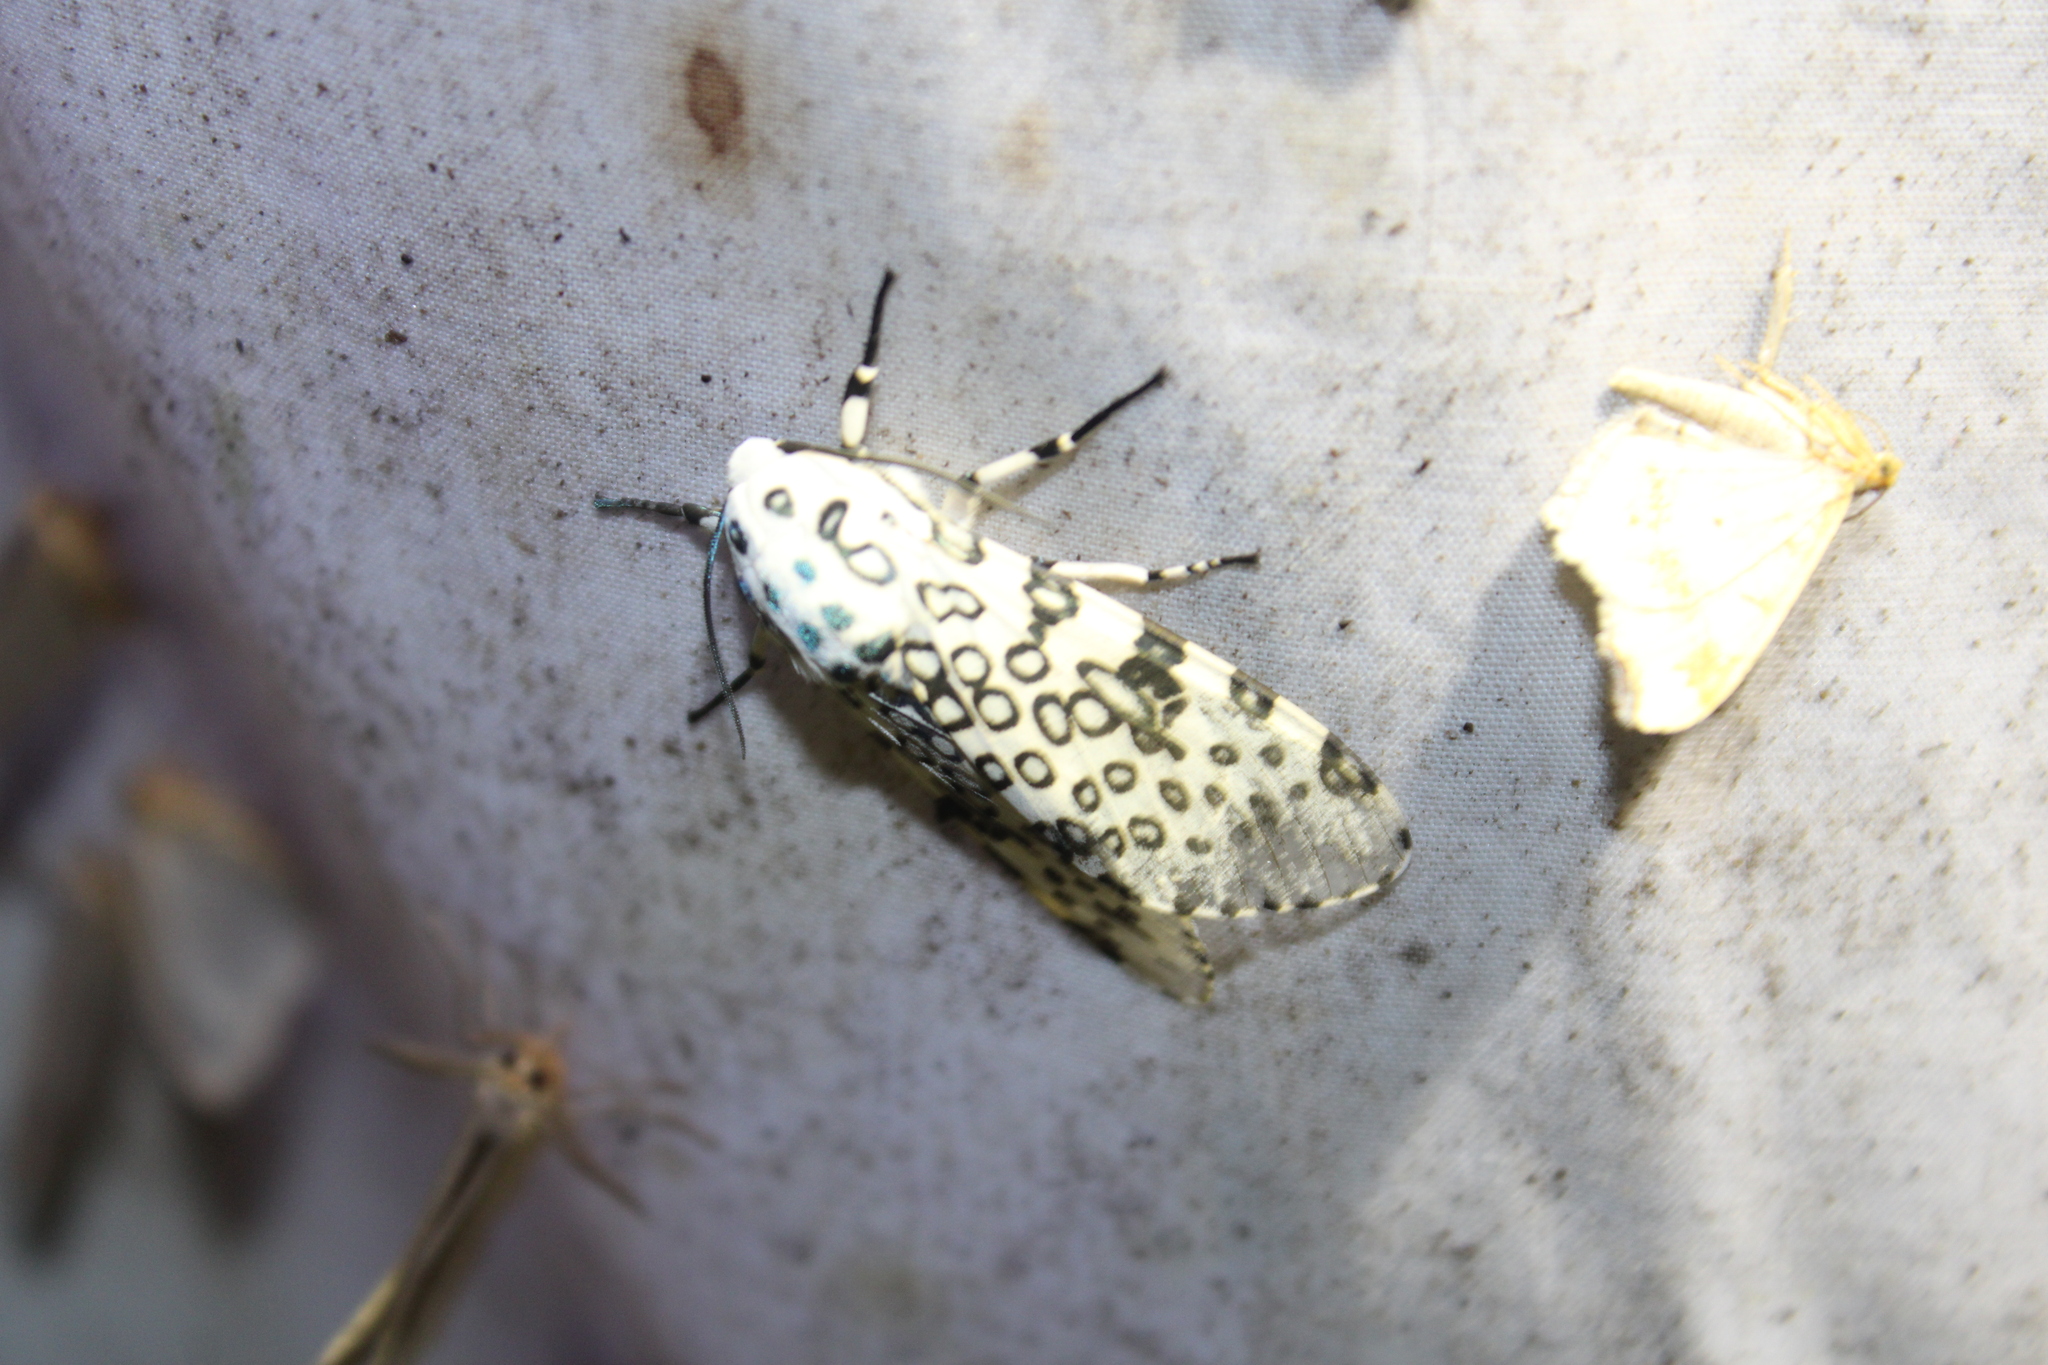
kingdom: Animalia
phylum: Arthropoda
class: Insecta
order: Lepidoptera
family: Erebidae
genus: Hypercompe
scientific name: Hypercompe scribonia
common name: Giant leopard moth
